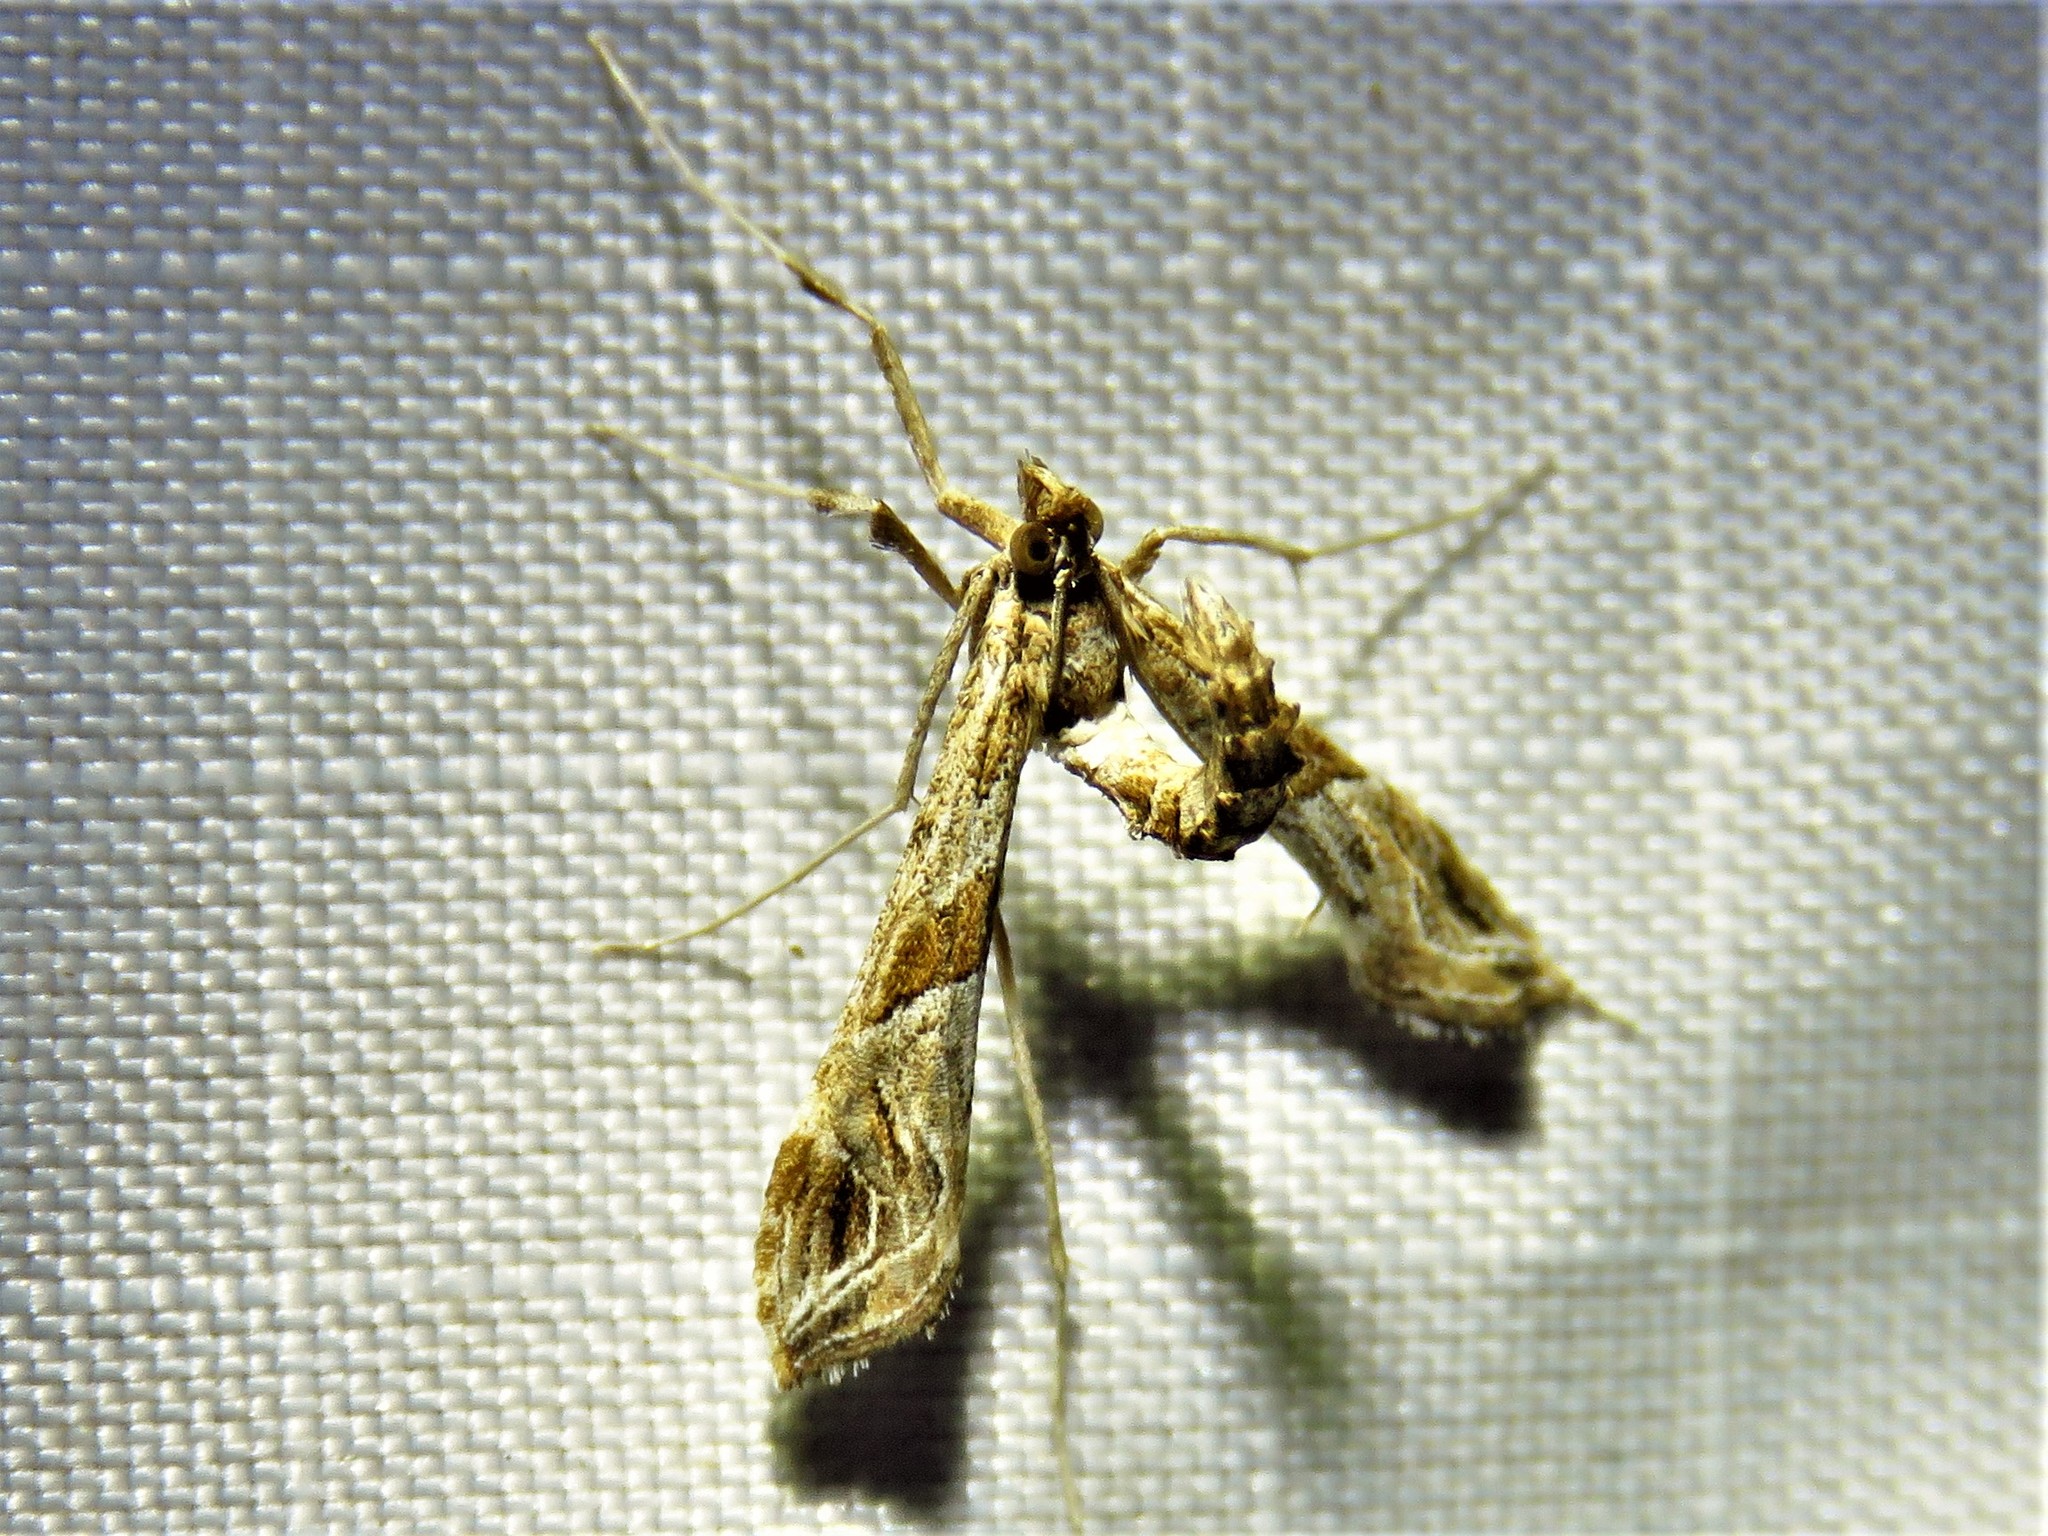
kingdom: Animalia
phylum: Arthropoda
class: Insecta
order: Lepidoptera
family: Crambidae
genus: Lineodes
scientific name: Lineodes interrupta
